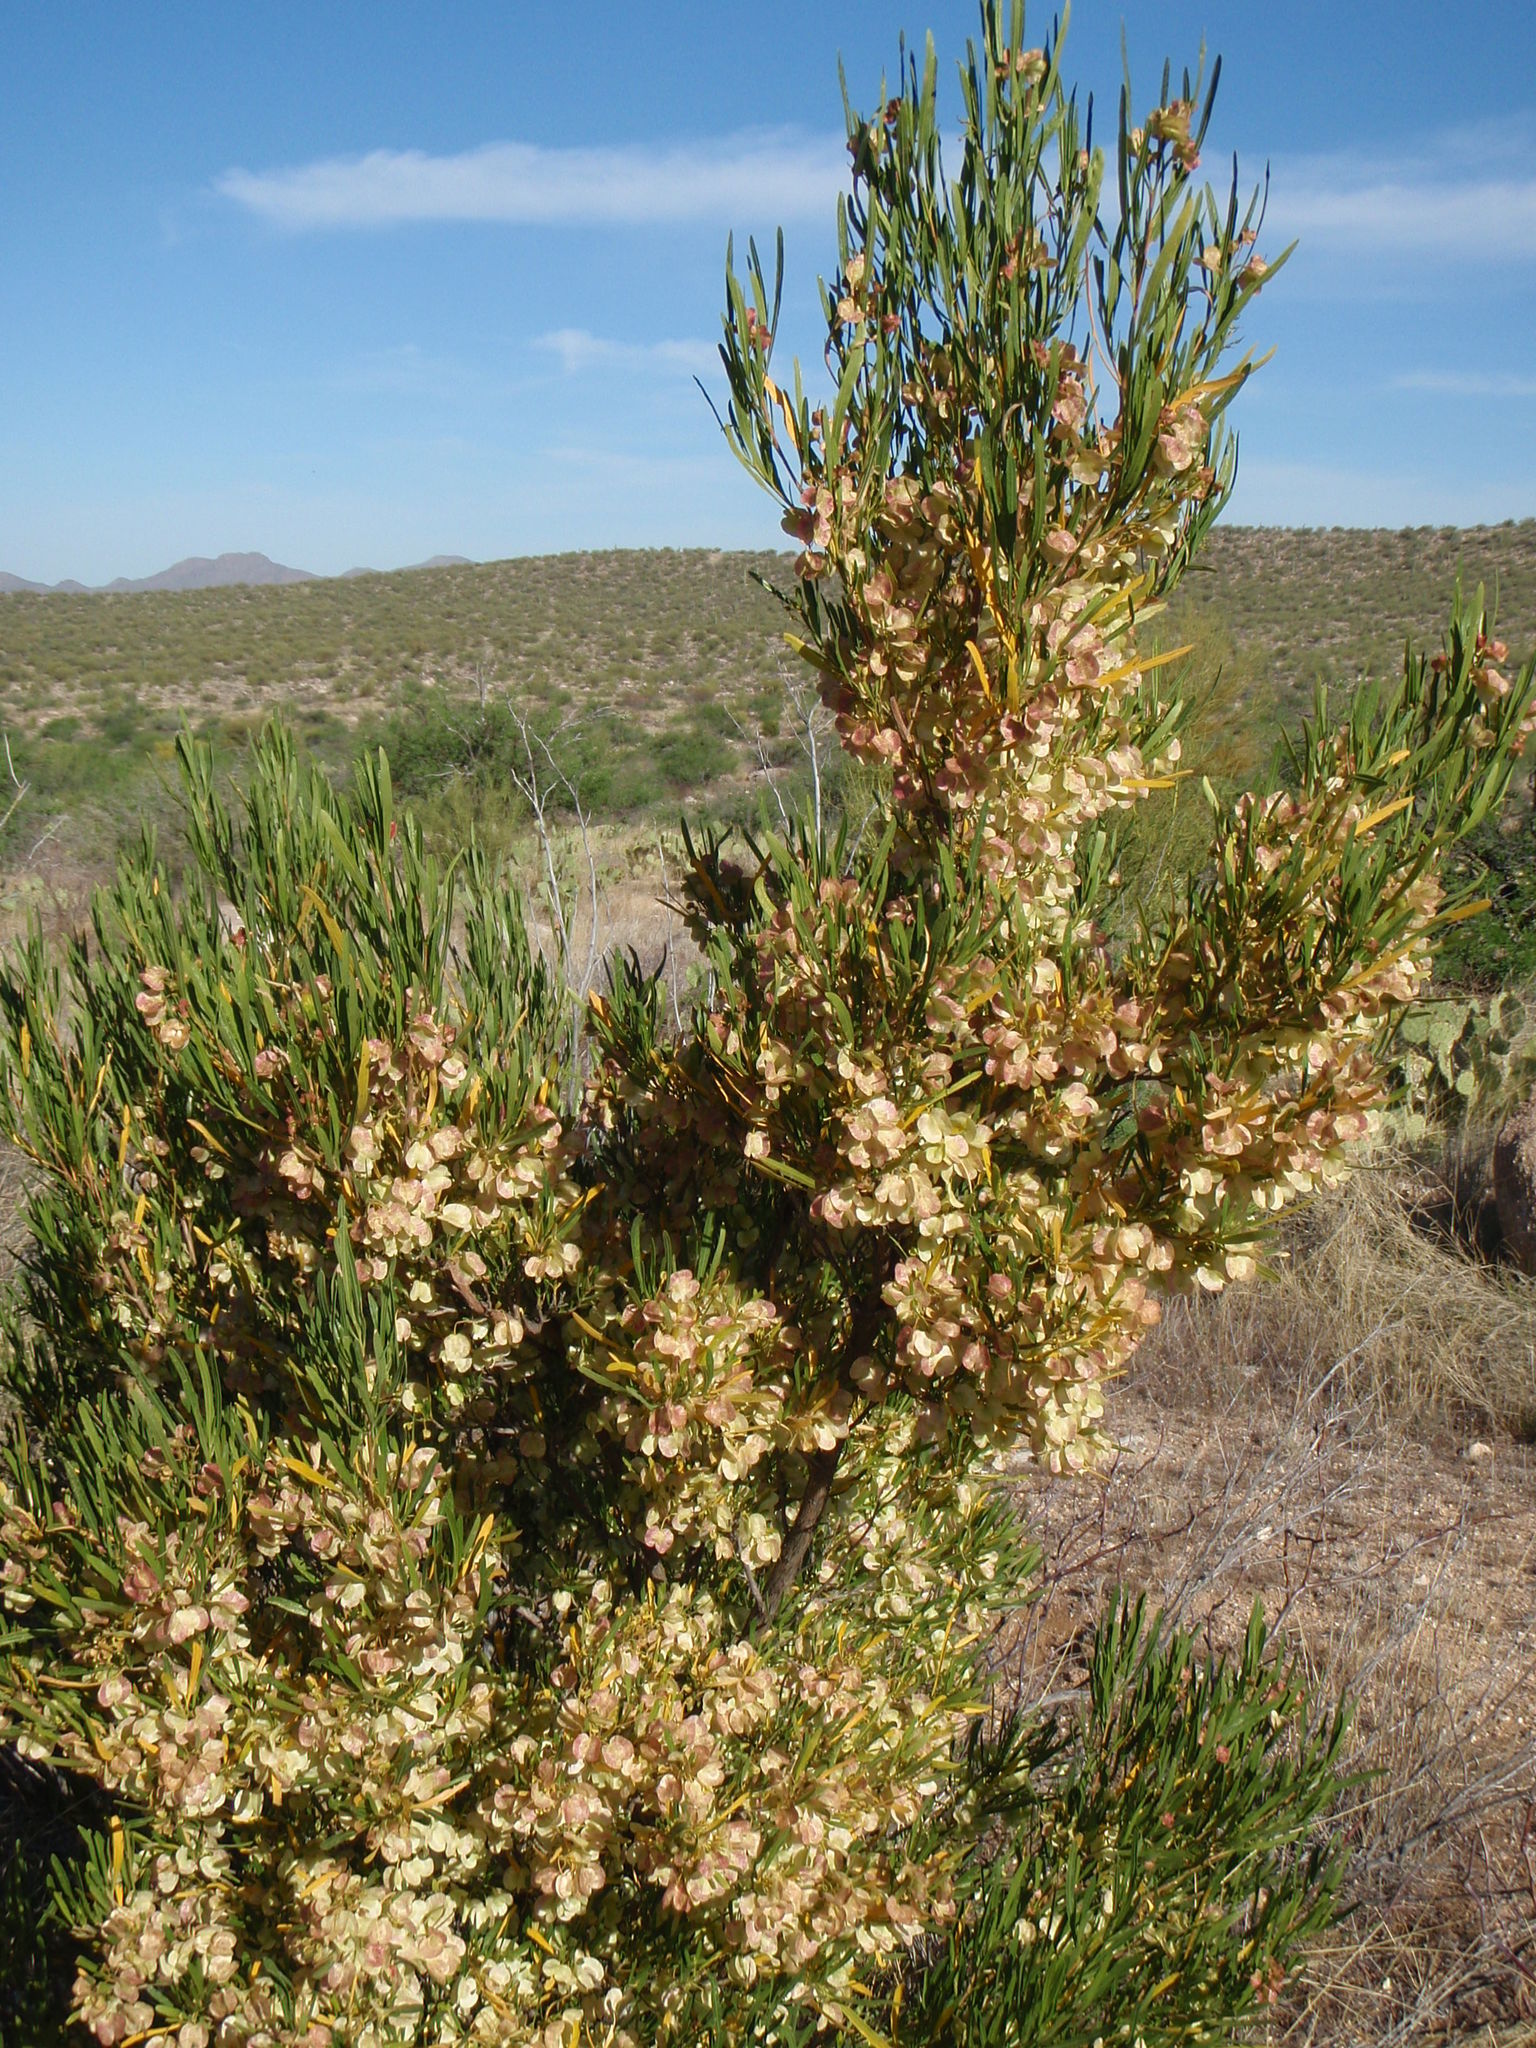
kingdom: Plantae
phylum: Tracheophyta
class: Magnoliopsida
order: Sapindales
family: Sapindaceae
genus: Dodonaea
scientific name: Dodonaea viscosa
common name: Hopbush
